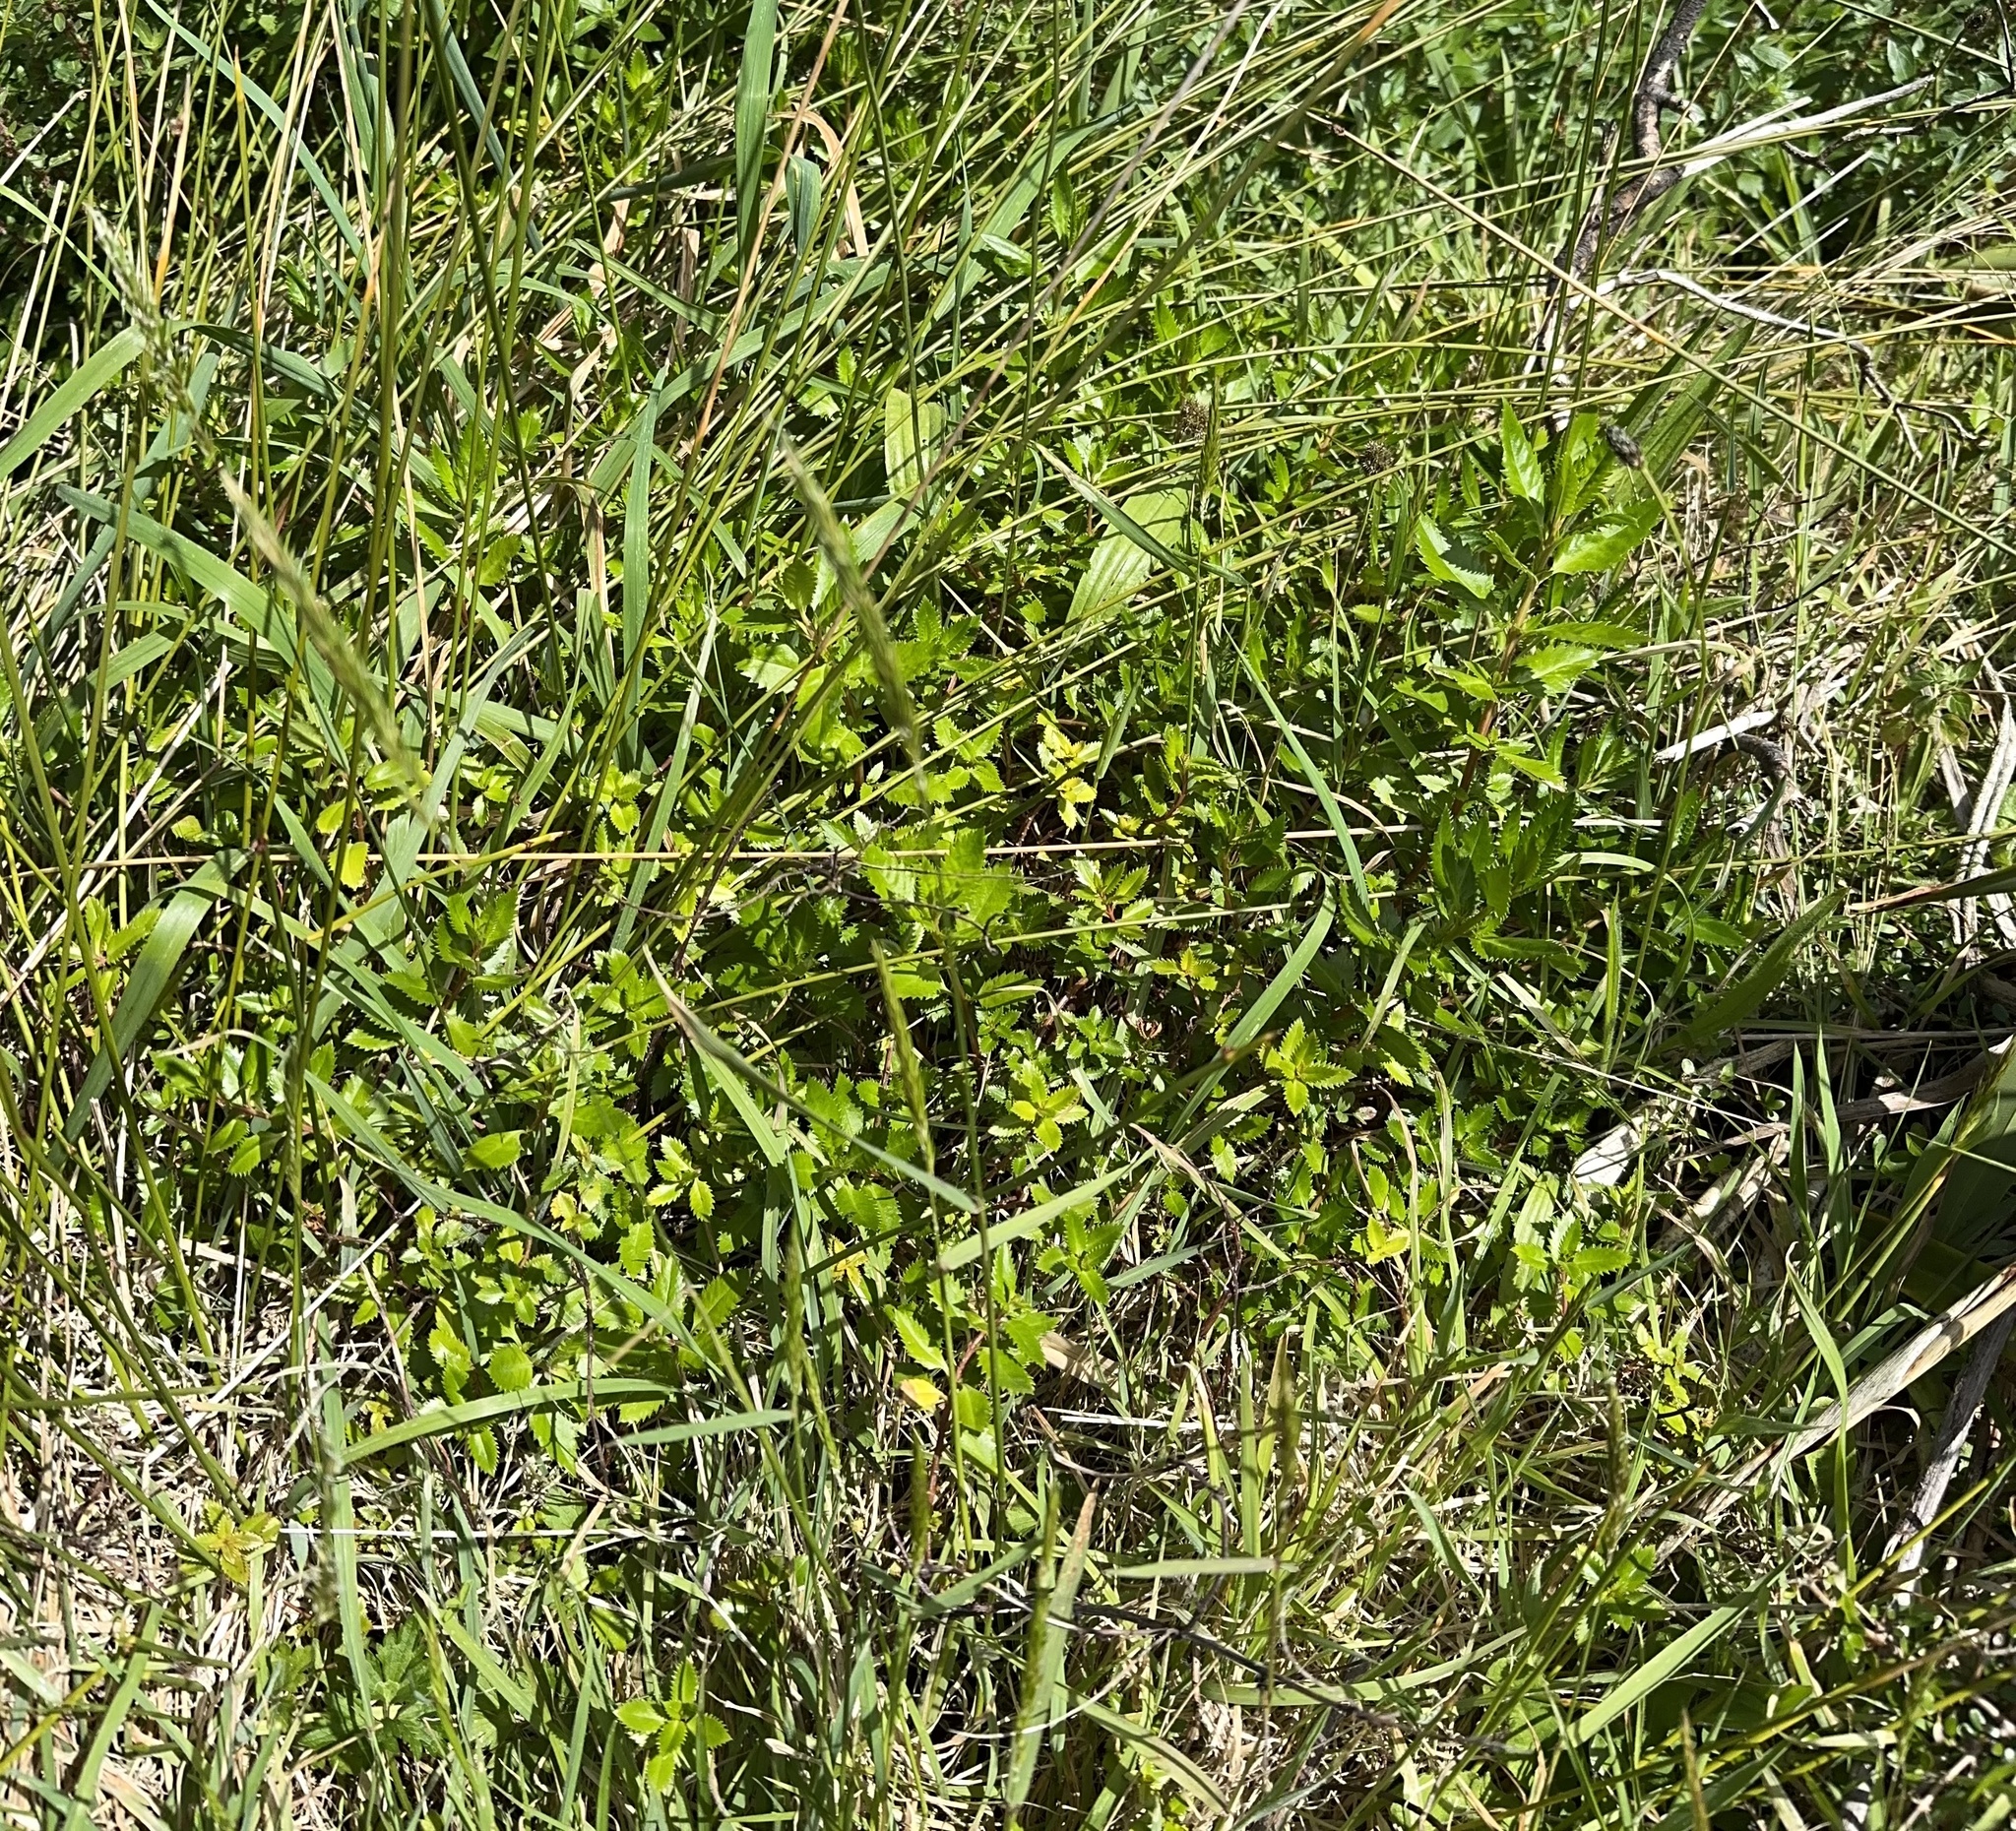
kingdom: Plantae
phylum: Tracheophyta
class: Magnoliopsida
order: Saxifragales
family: Haloragaceae
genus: Haloragis
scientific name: Haloragis erecta
